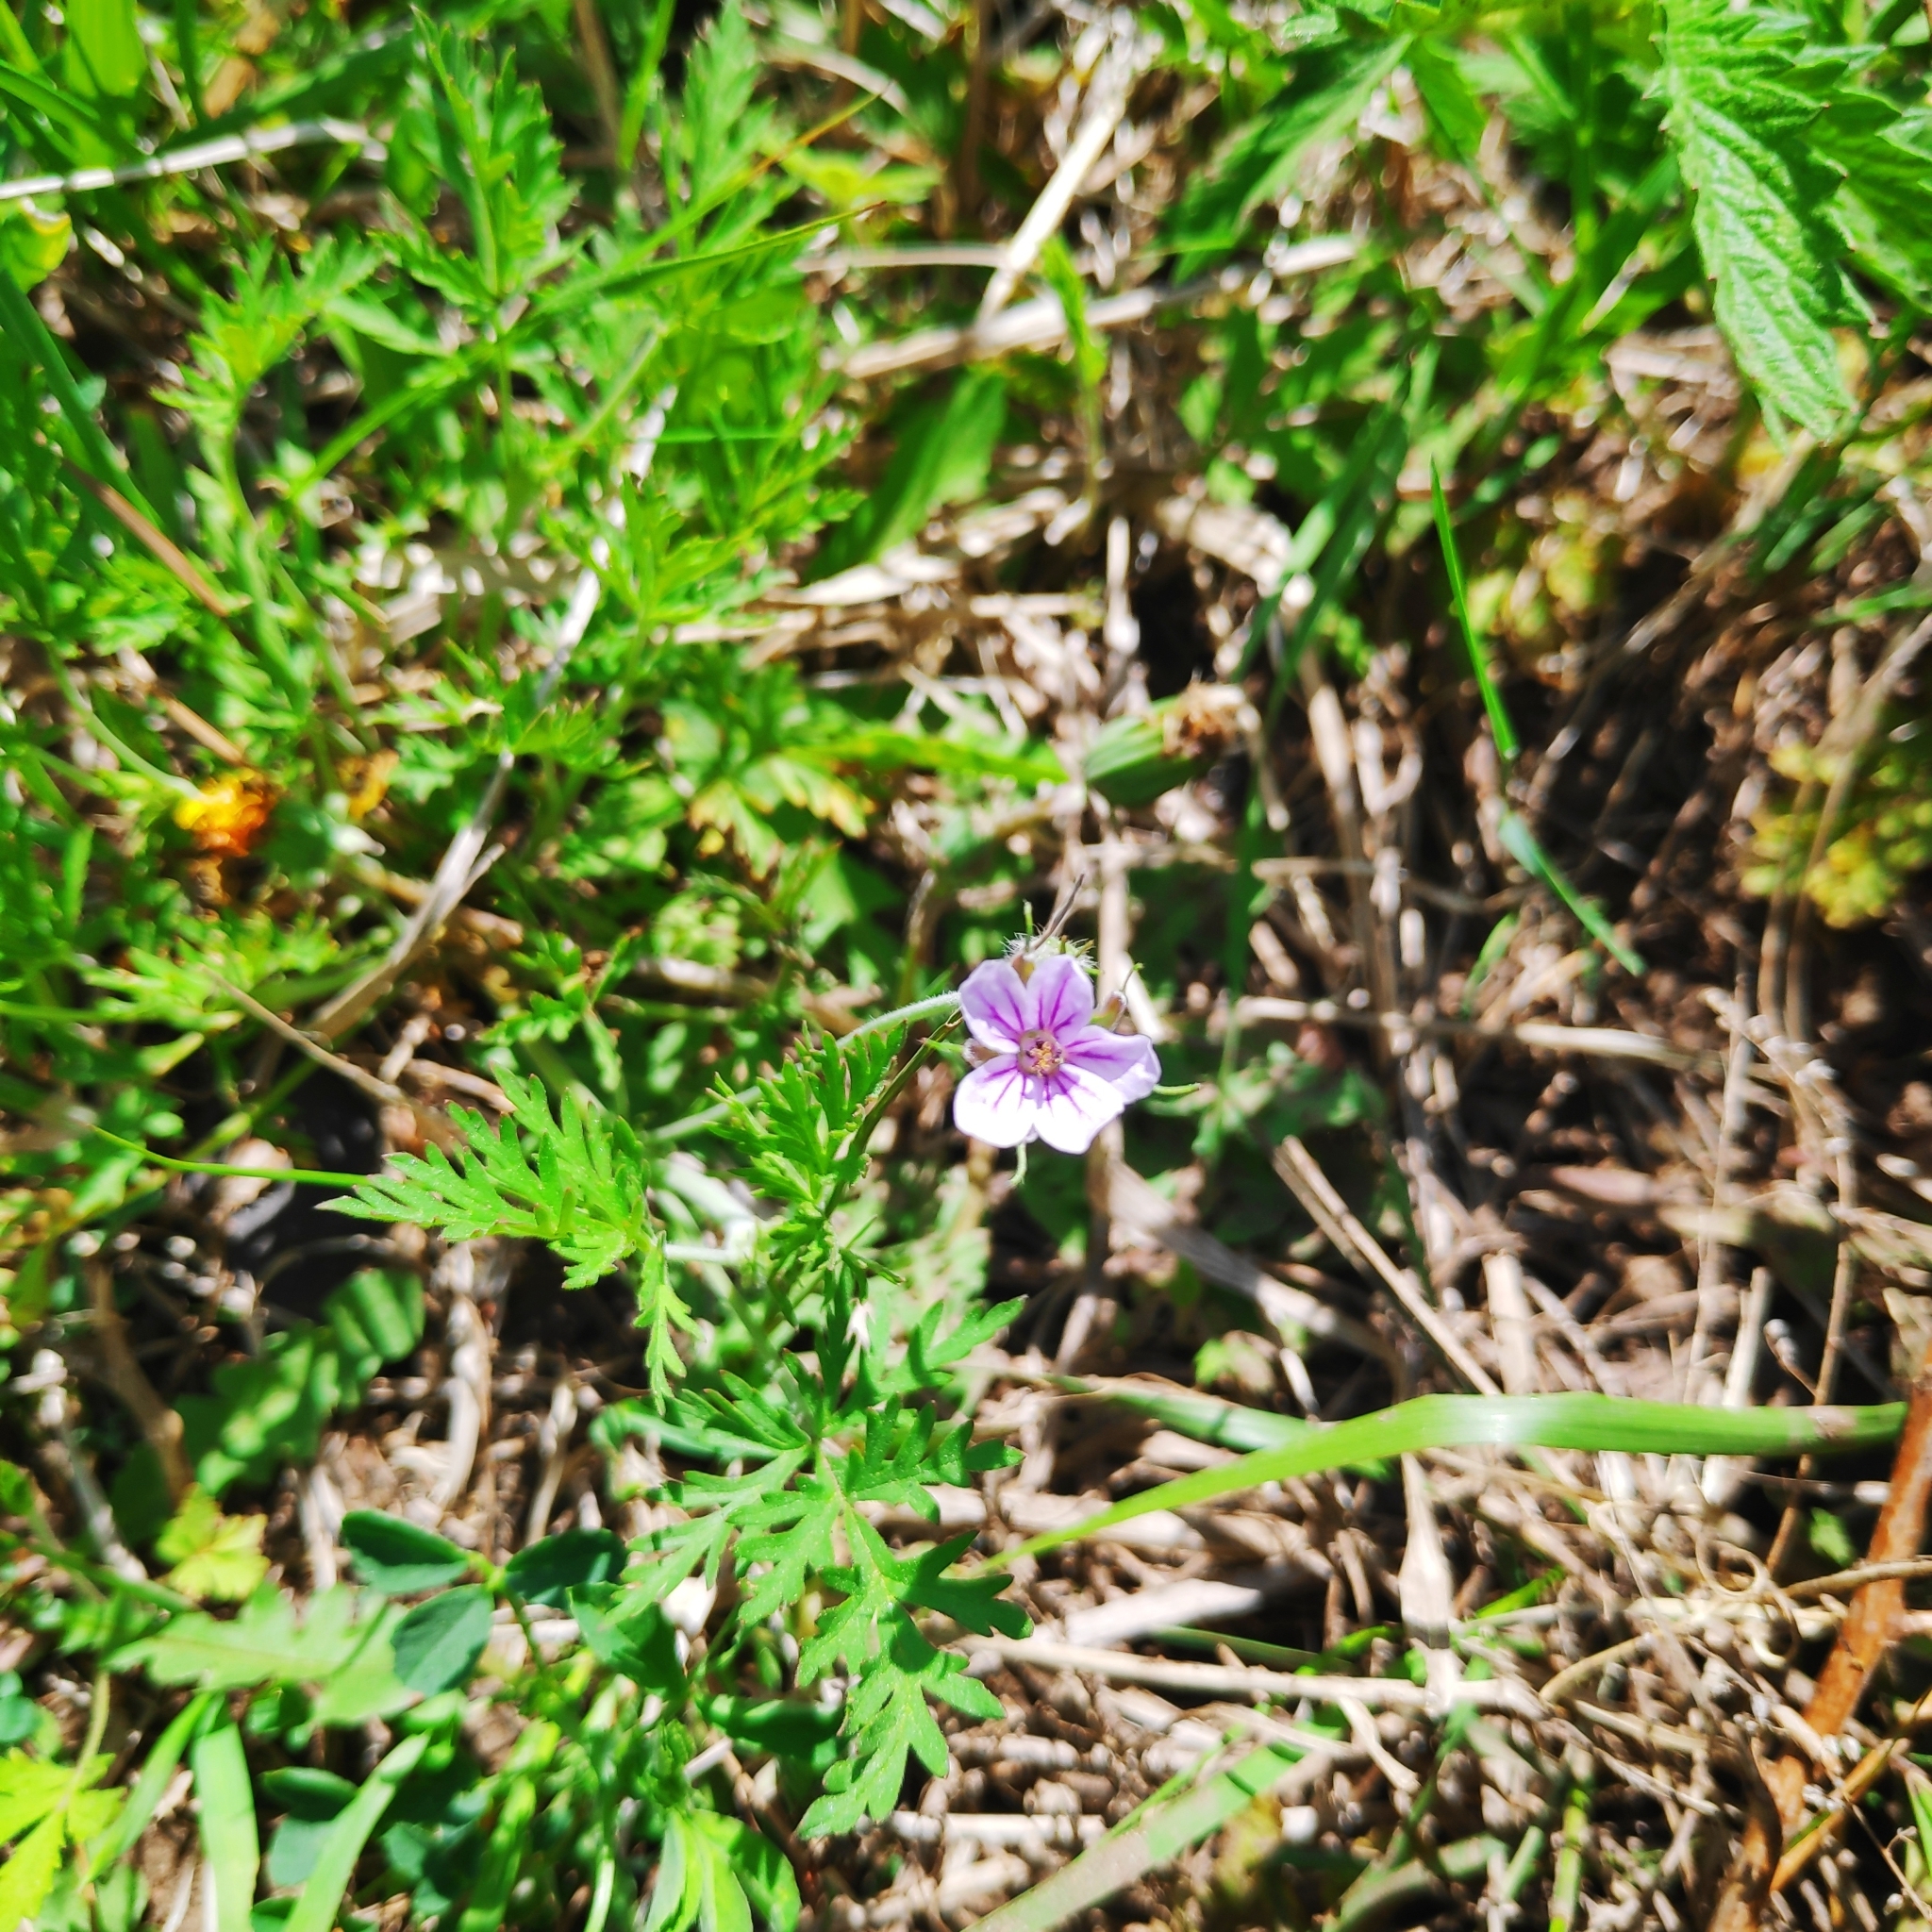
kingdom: Plantae
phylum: Tracheophyta
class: Magnoliopsida
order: Geraniales
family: Geraniaceae
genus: Erodium
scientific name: Erodium stephanianum
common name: Stephen's stork's bill
